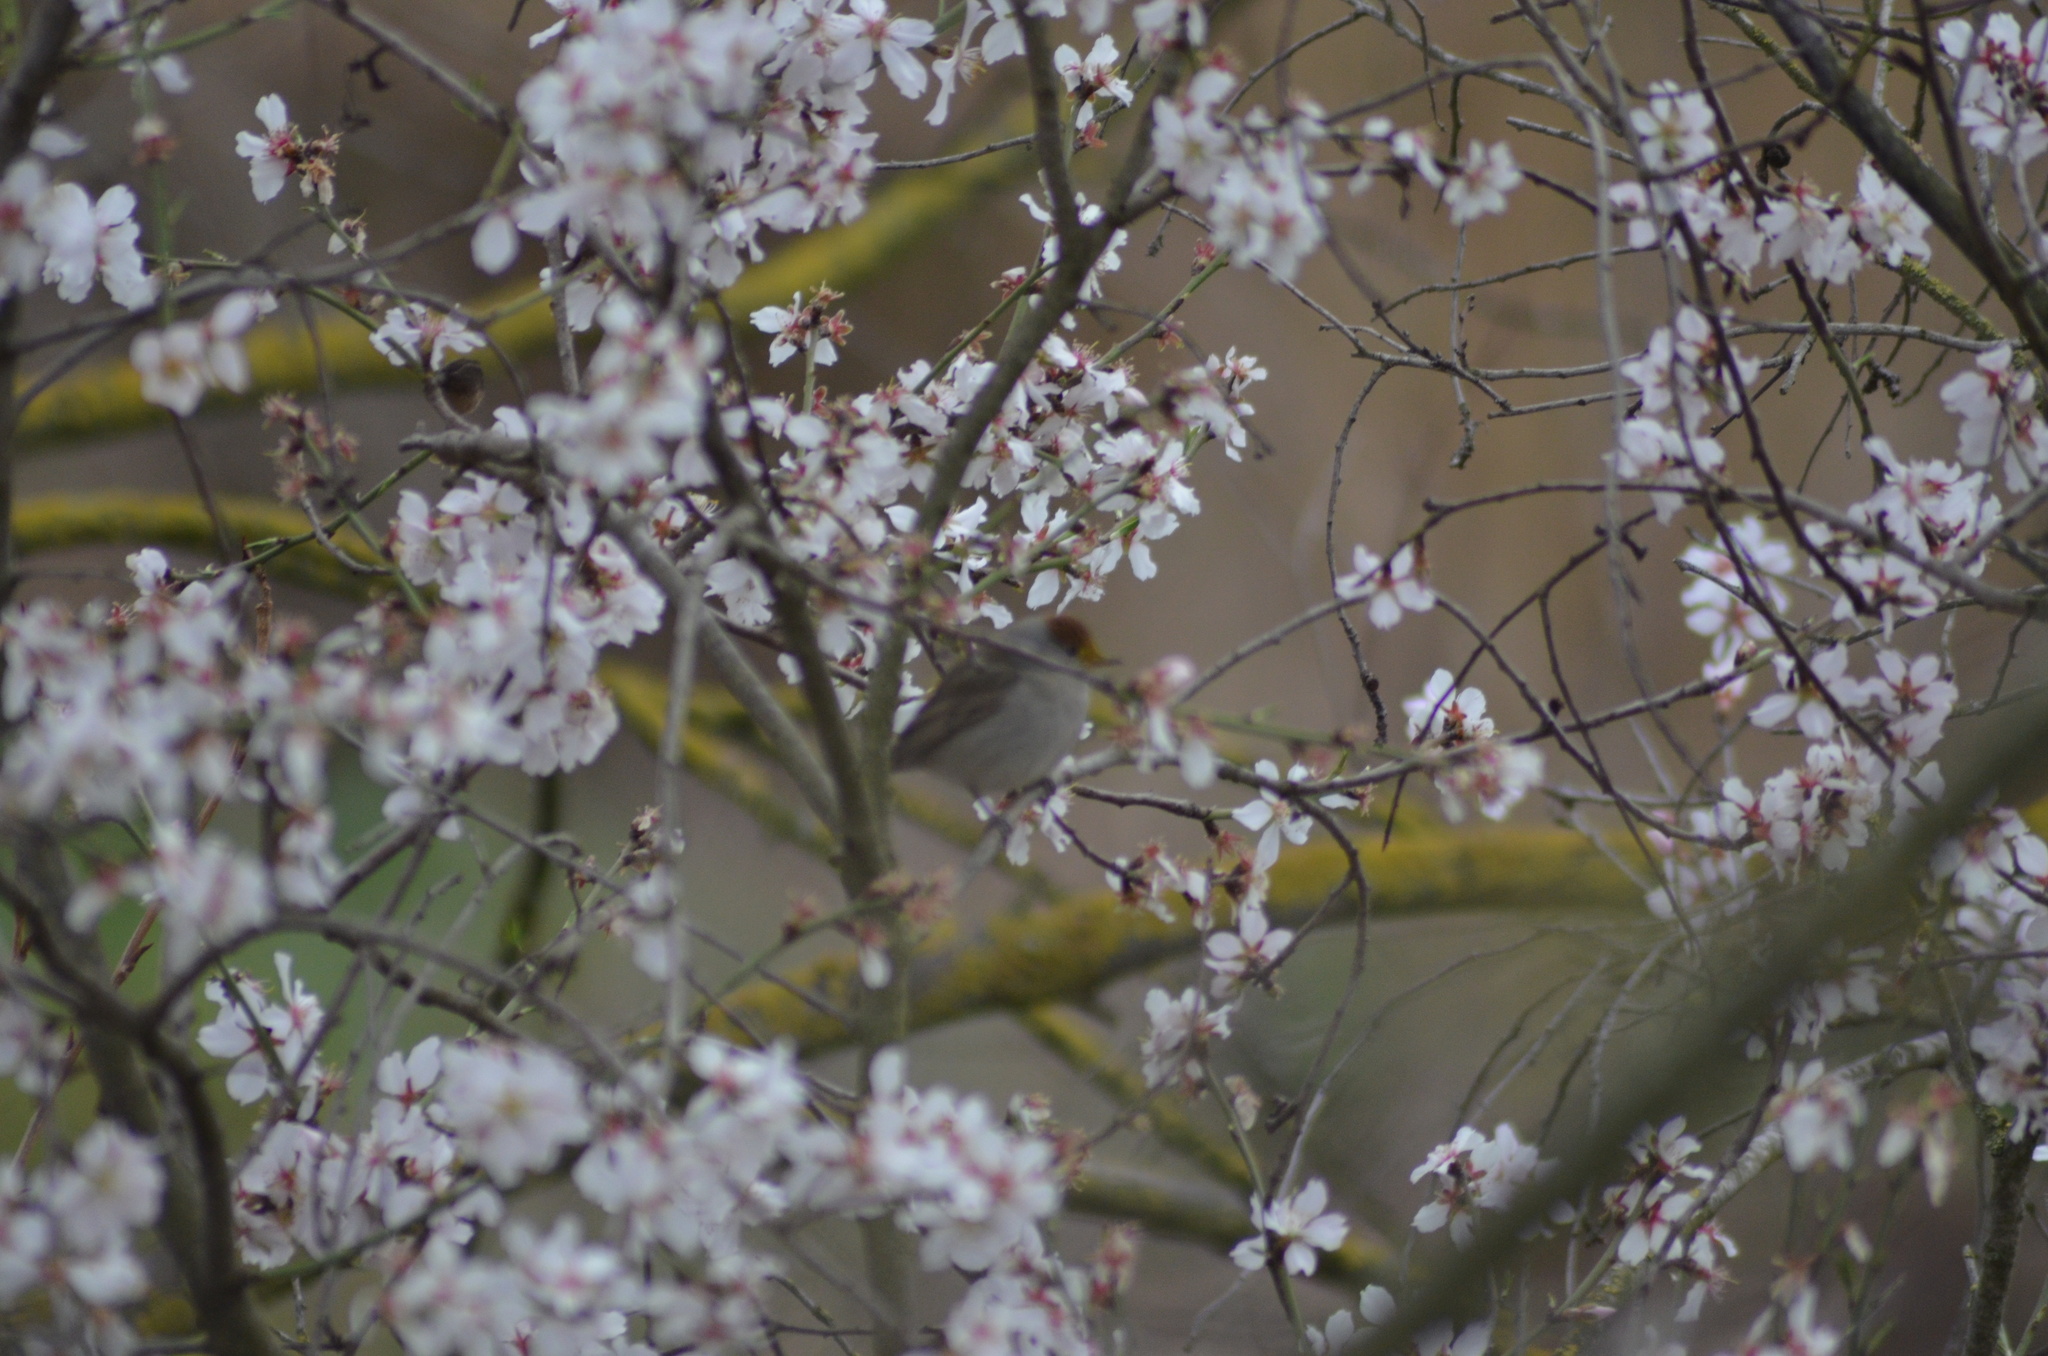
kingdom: Animalia
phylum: Chordata
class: Aves
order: Passeriformes
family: Sylviidae
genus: Sylvia
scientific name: Sylvia atricapilla
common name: Eurasian blackcap
